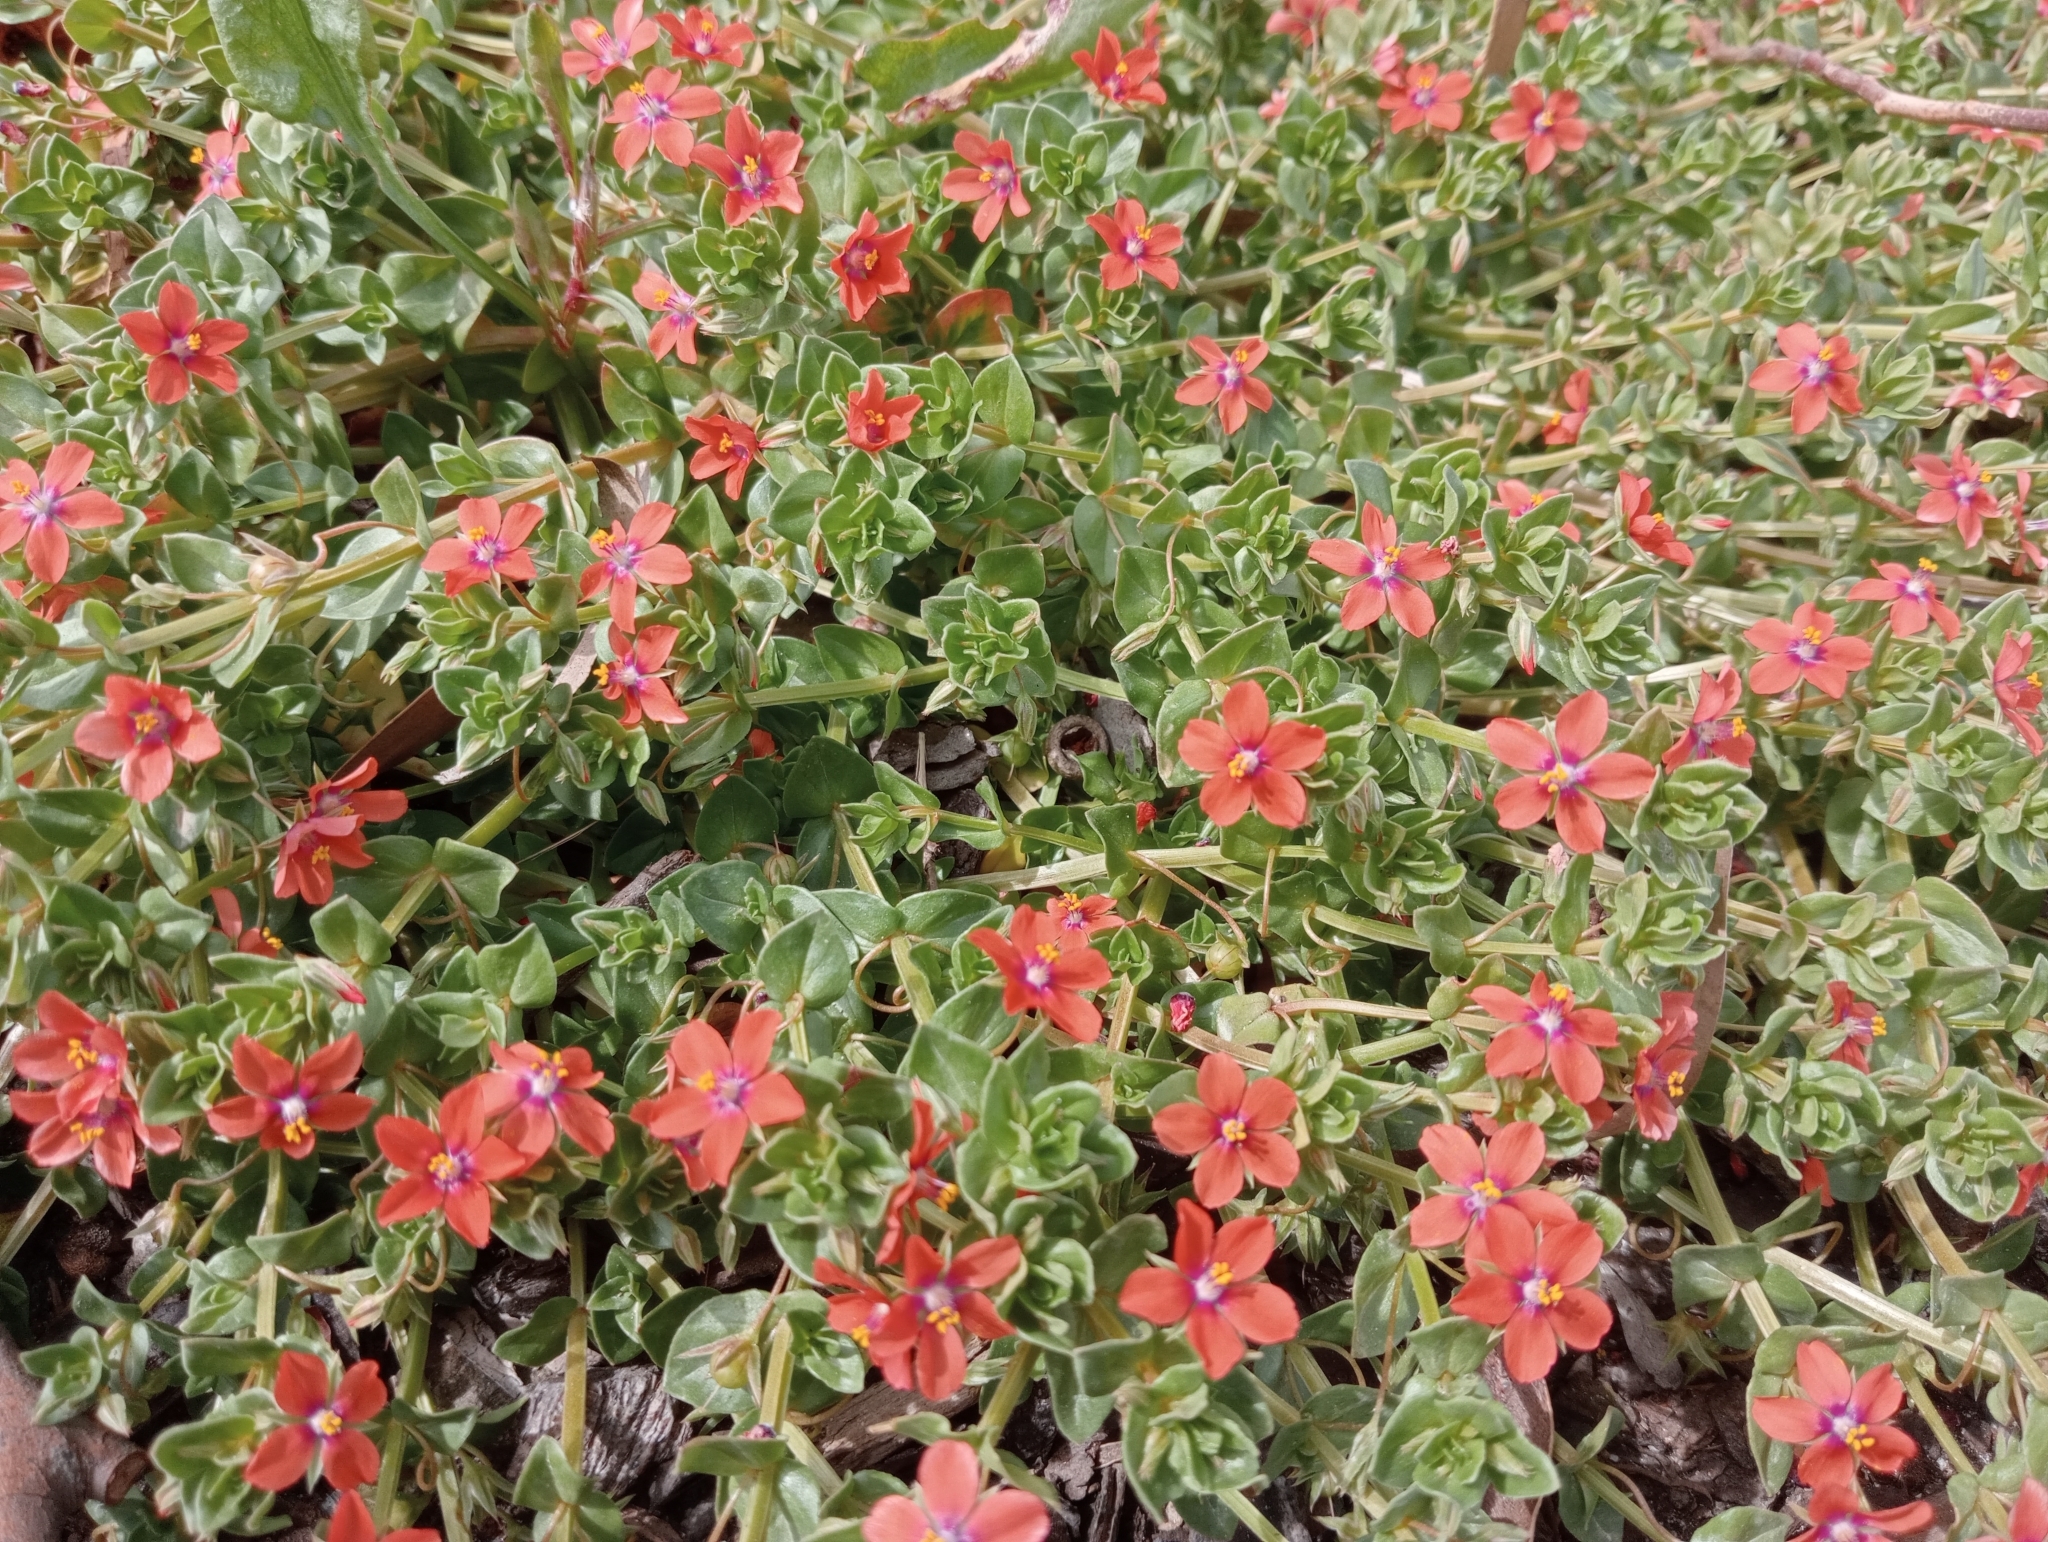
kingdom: Plantae
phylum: Tracheophyta
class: Magnoliopsida
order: Ericales
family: Primulaceae
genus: Lysimachia
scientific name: Lysimachia arvensis
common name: Scarlet pimpernel
